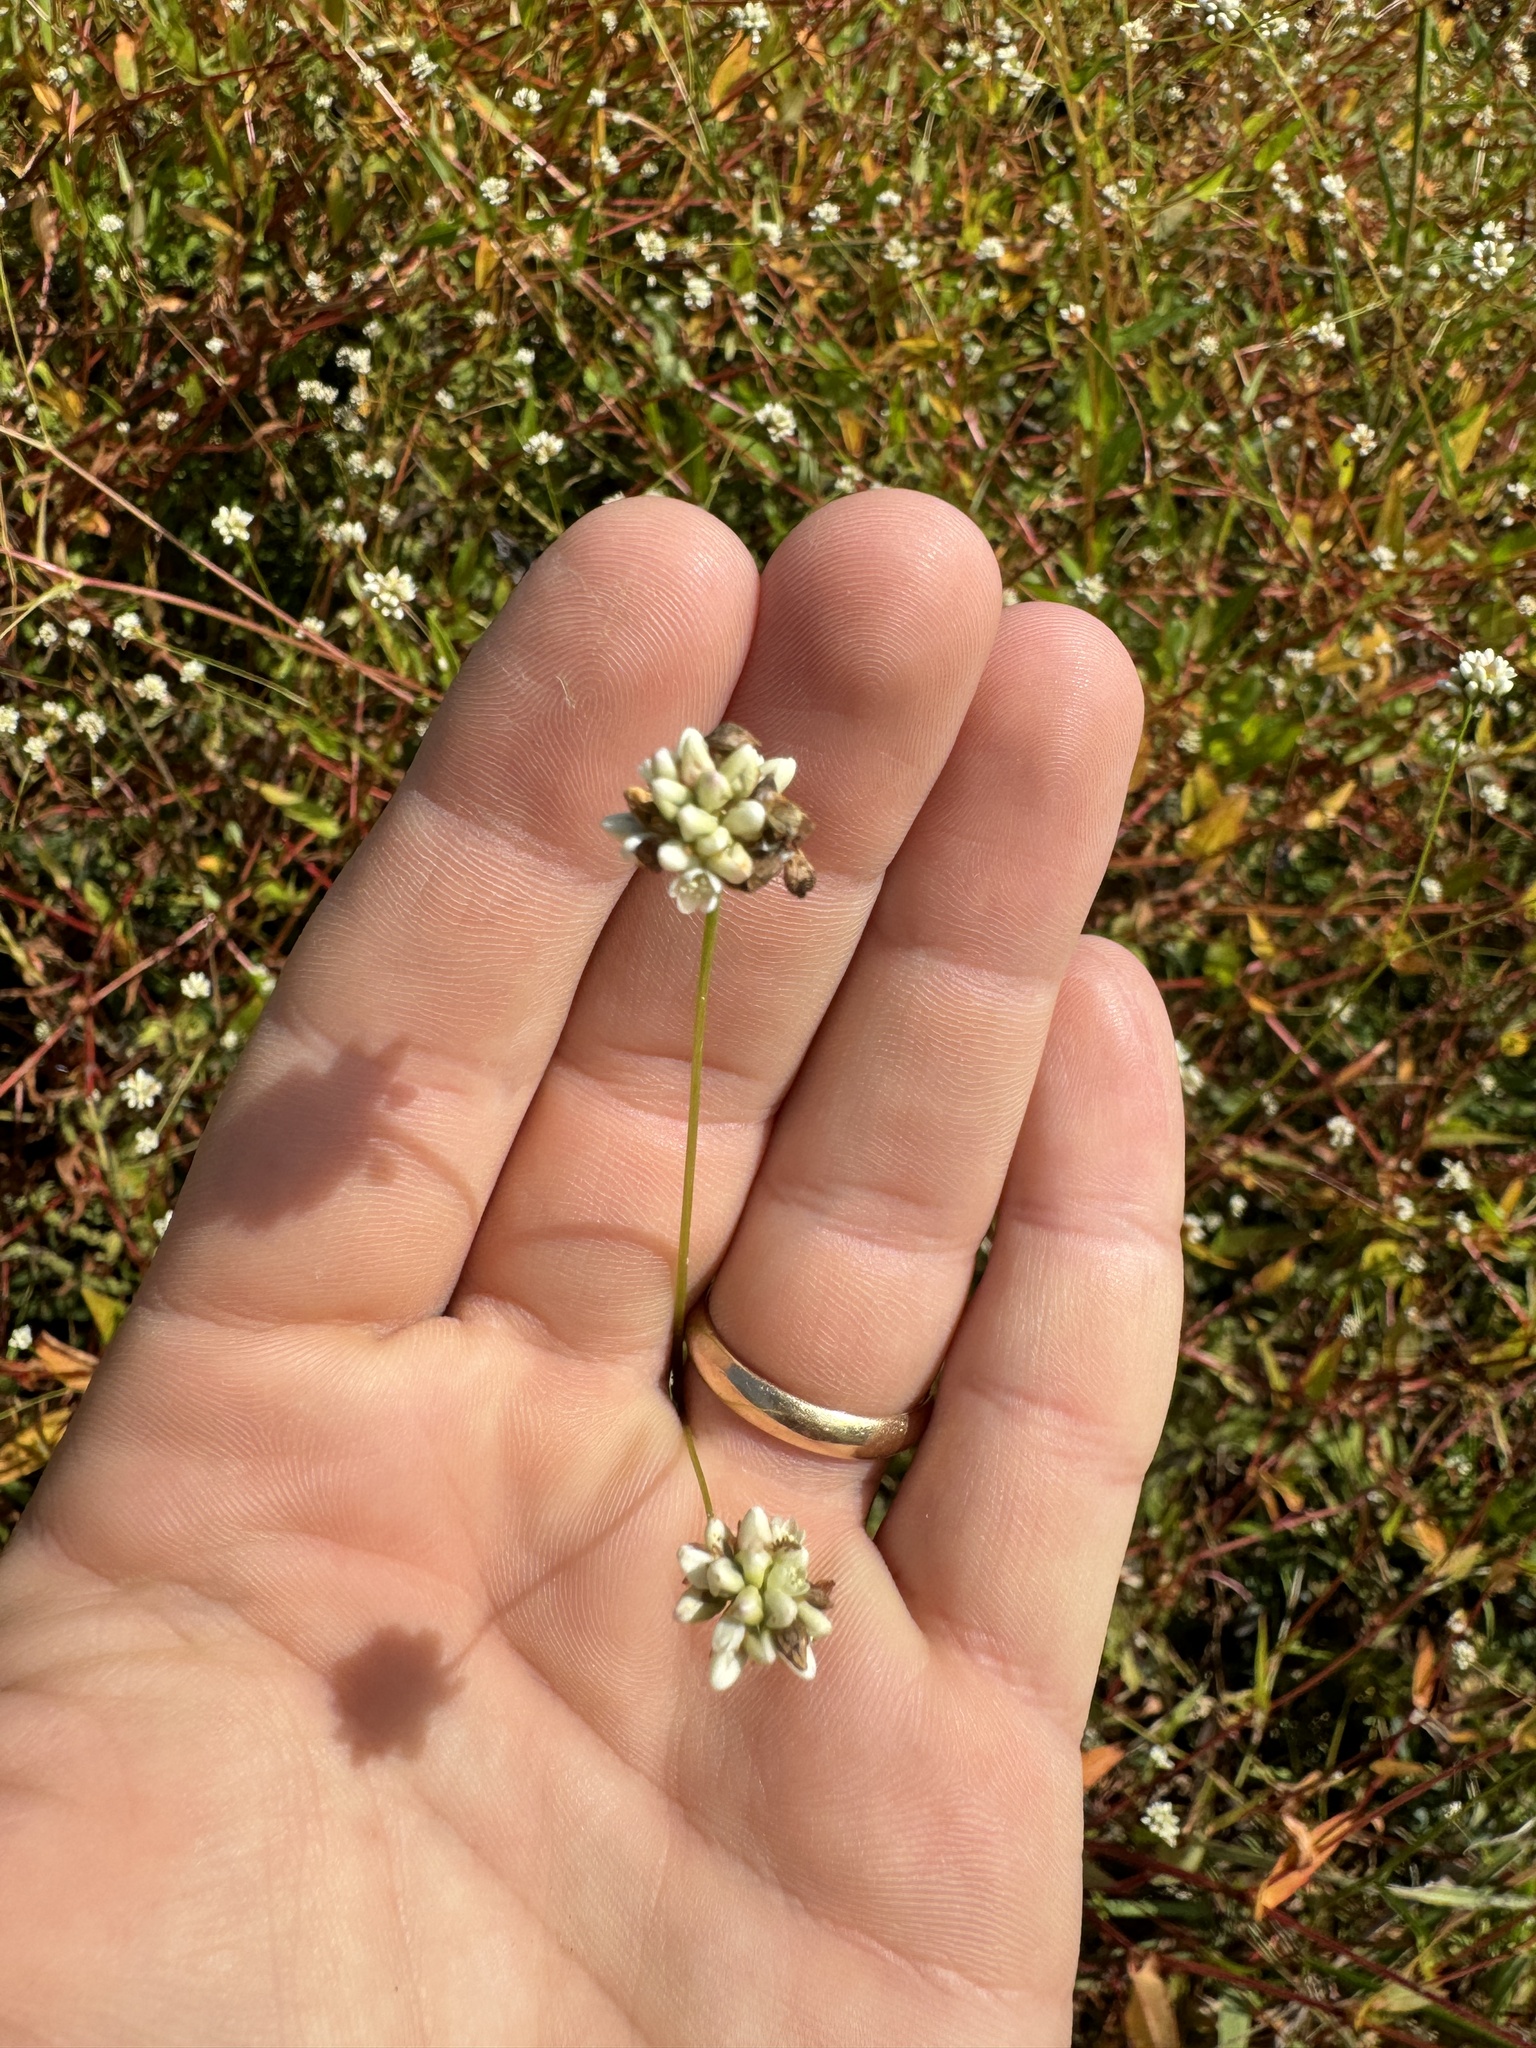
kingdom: Plantae
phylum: Tracheophyta
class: Magnoliopsida
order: Caryophyllales
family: Polygonaceae
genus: Persicaria
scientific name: Persicaria sagittata
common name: American tearthumb
